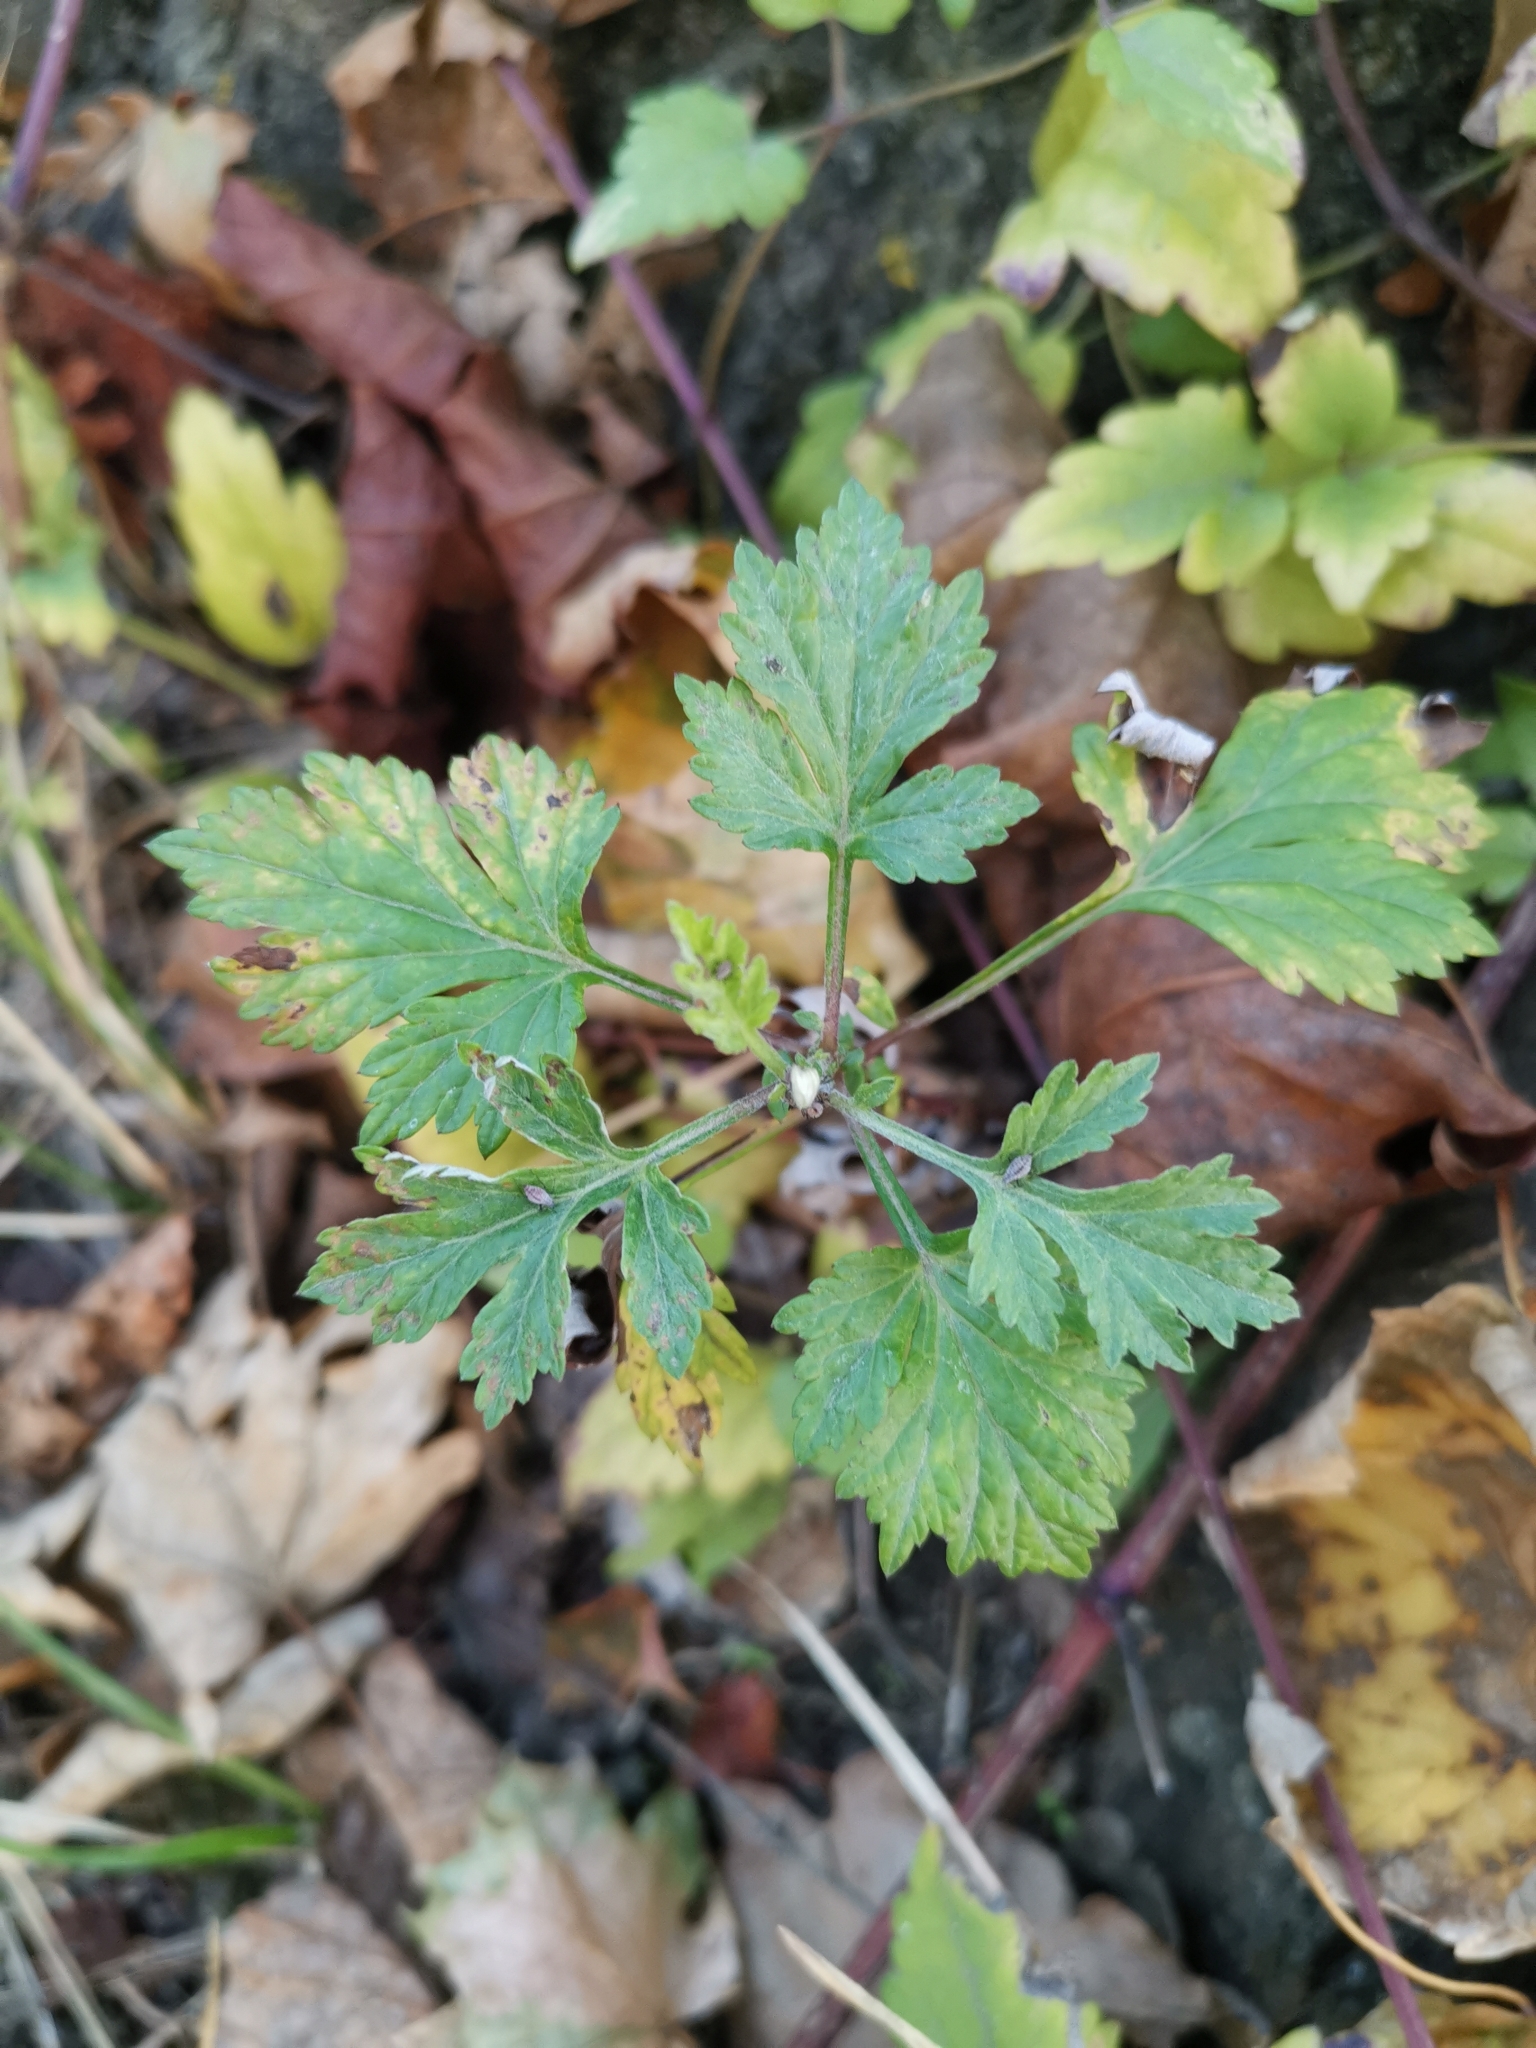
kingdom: Plantae
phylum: Tracheophyta
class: Magnoliopsida
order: Asterales
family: Asteraceae
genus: Artemisia
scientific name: Artemisia vulgaris
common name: Mugwort
